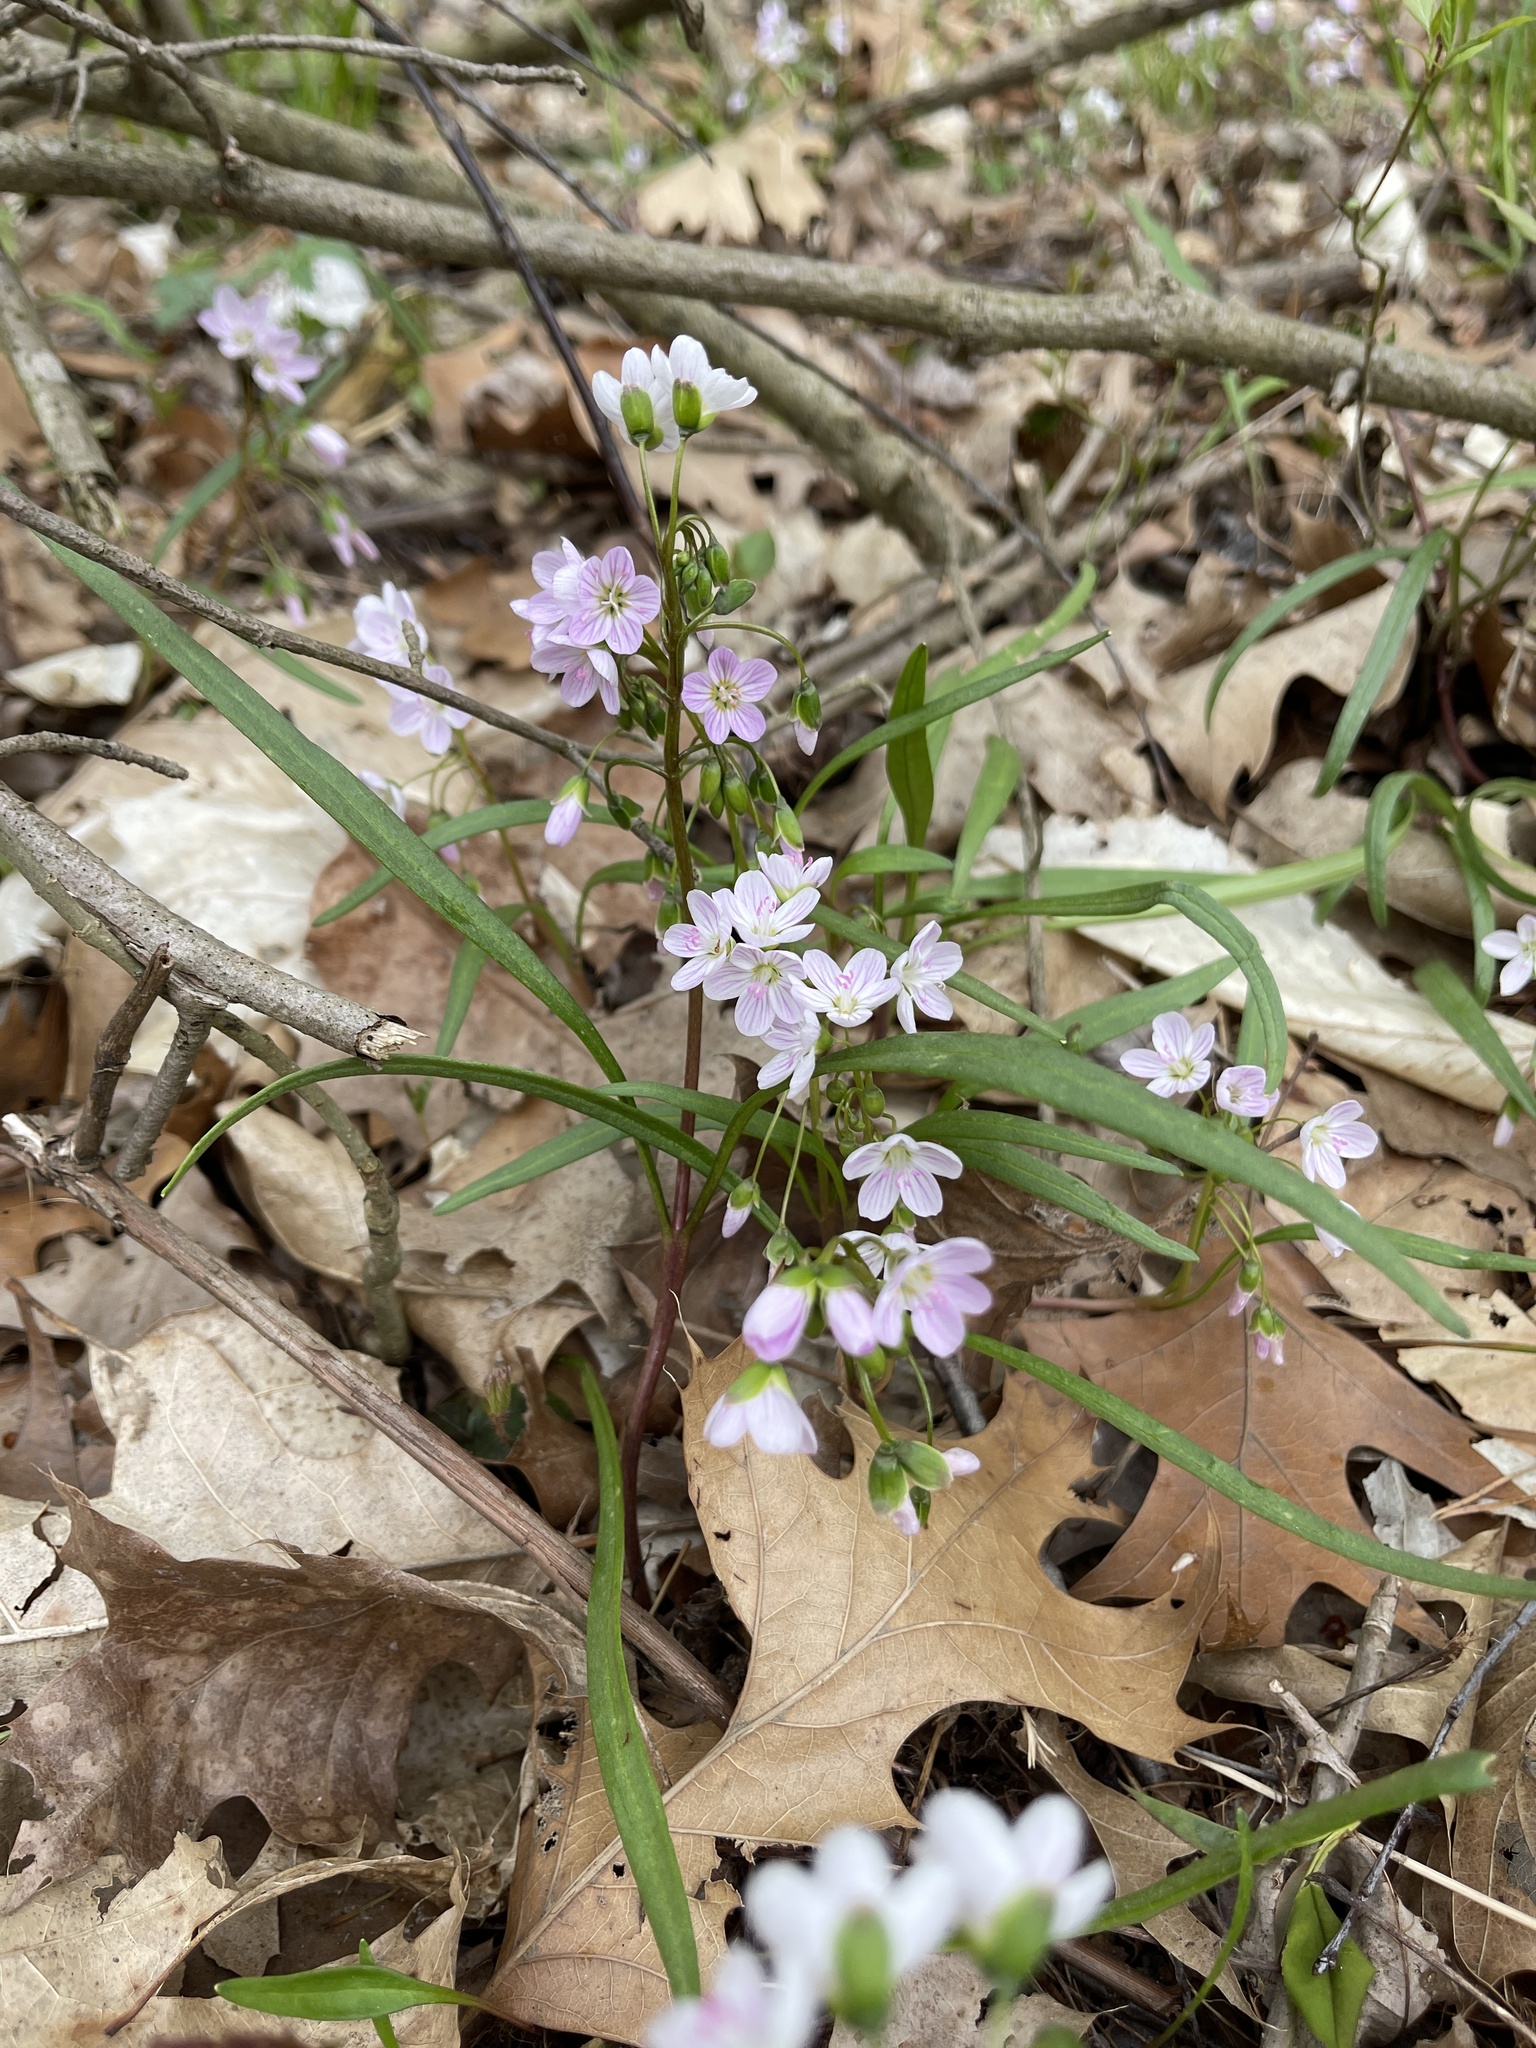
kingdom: Plantae
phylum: Tracheophyta
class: Magnoliopsida
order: Caryophyllales
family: Montiaceae
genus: Claytonia
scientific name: Claytonia virginica
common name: Virginia springbeauty
